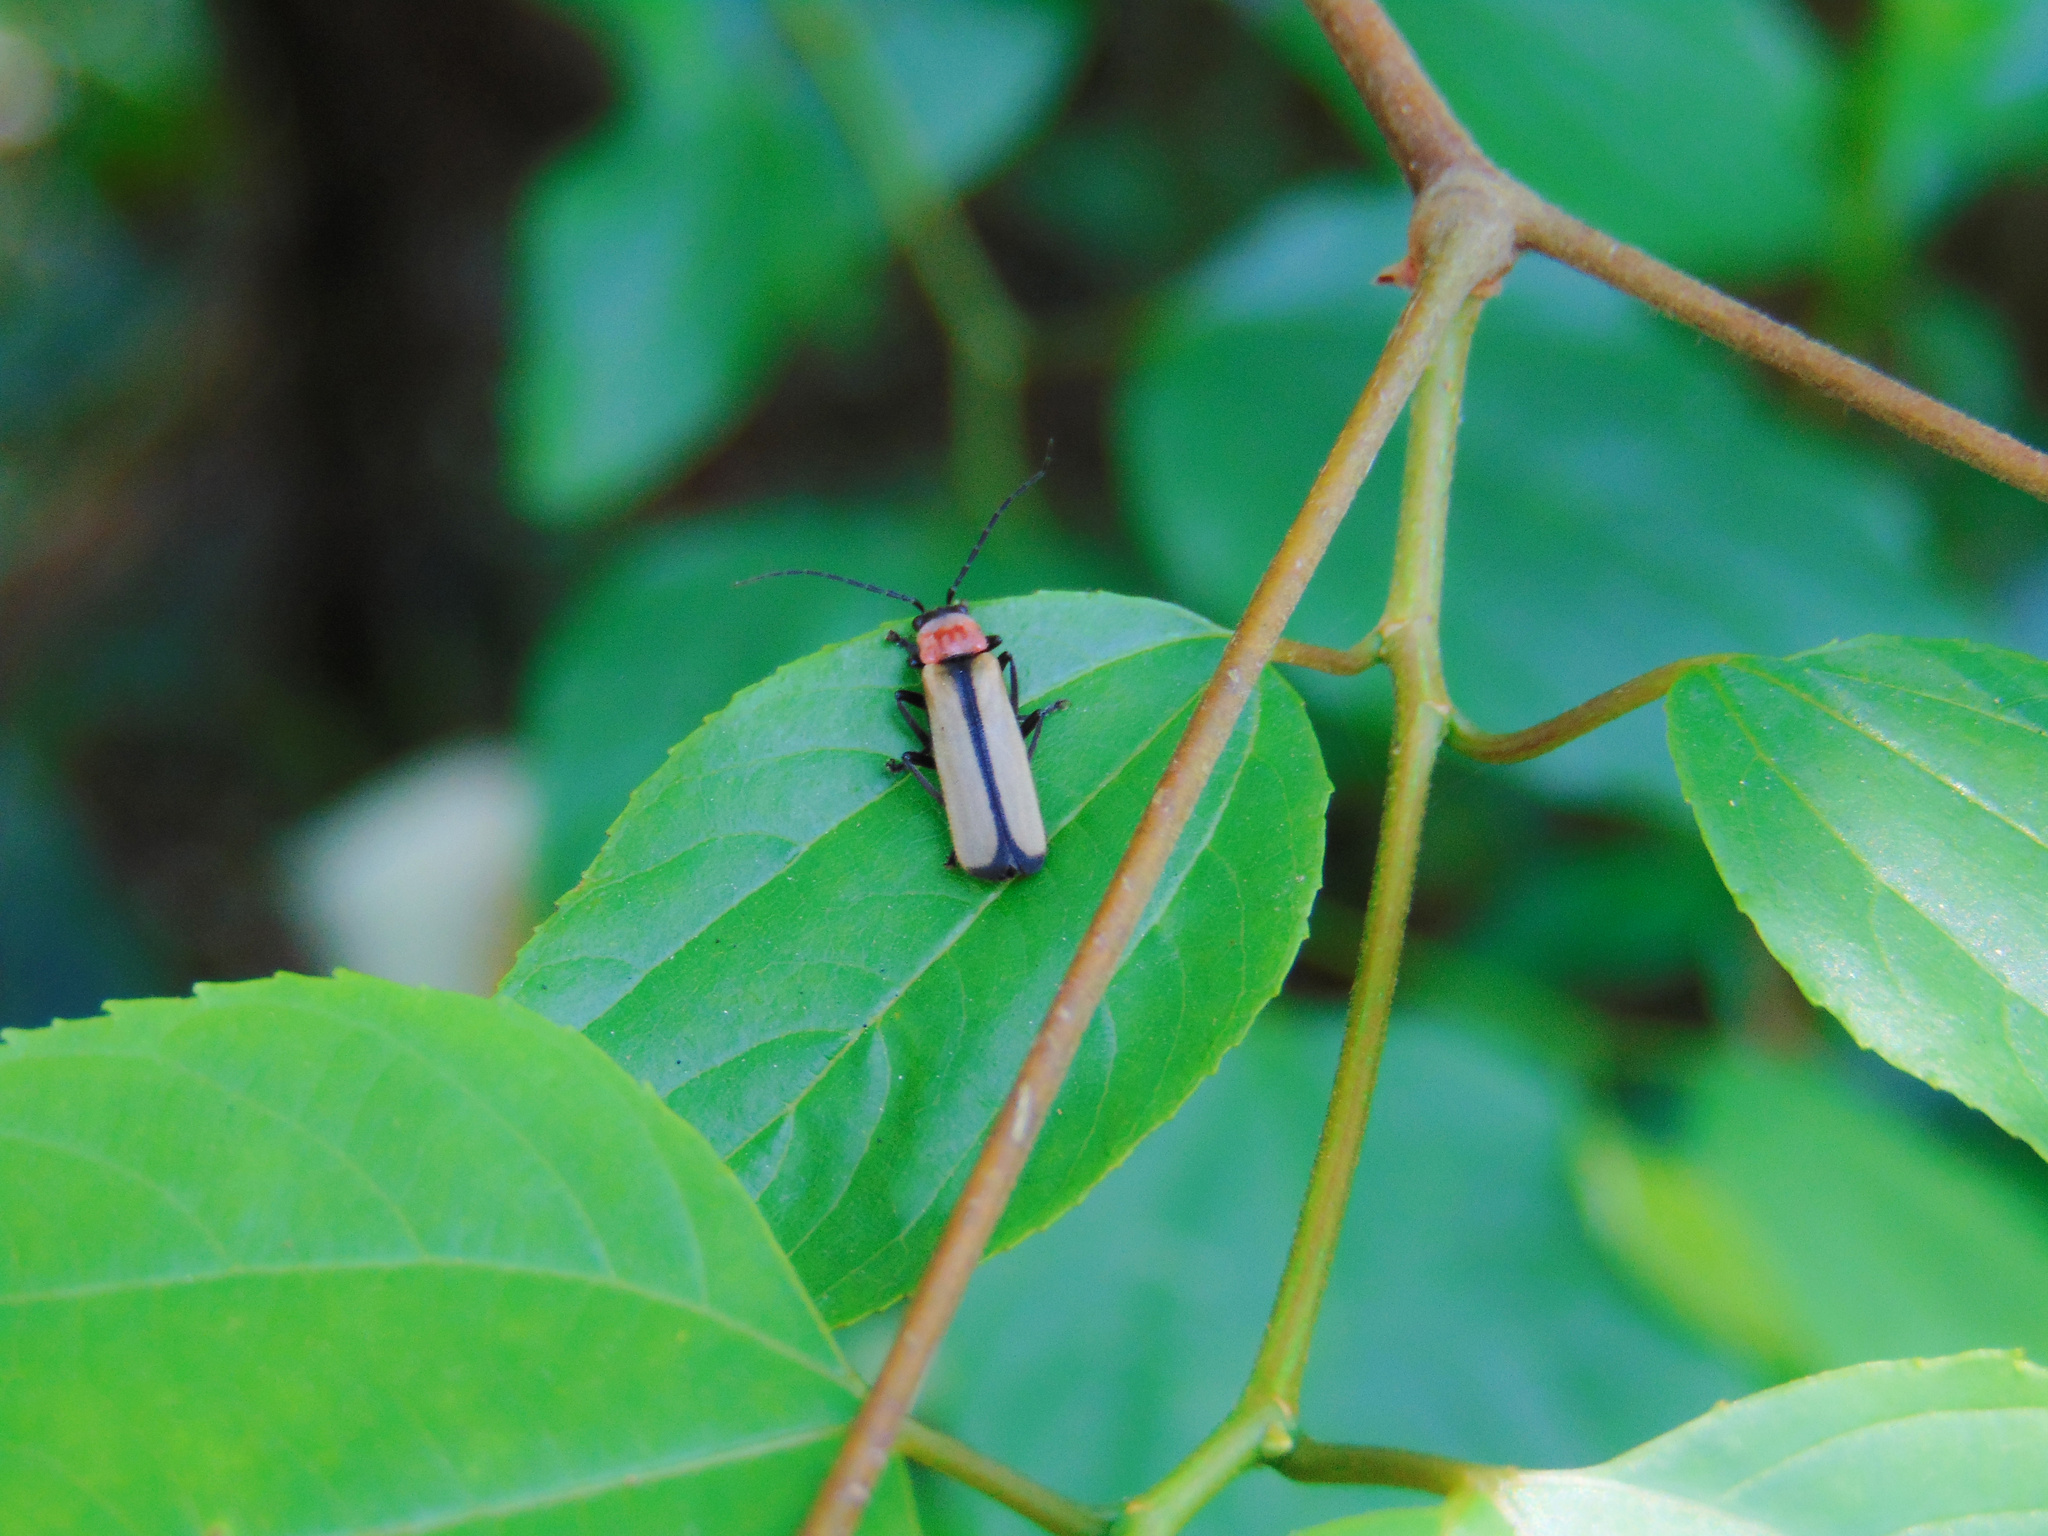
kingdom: Animalia
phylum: Arthropoda
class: Insecta
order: Coleoptera
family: Cantharidae
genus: Discodon
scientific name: Discodon
